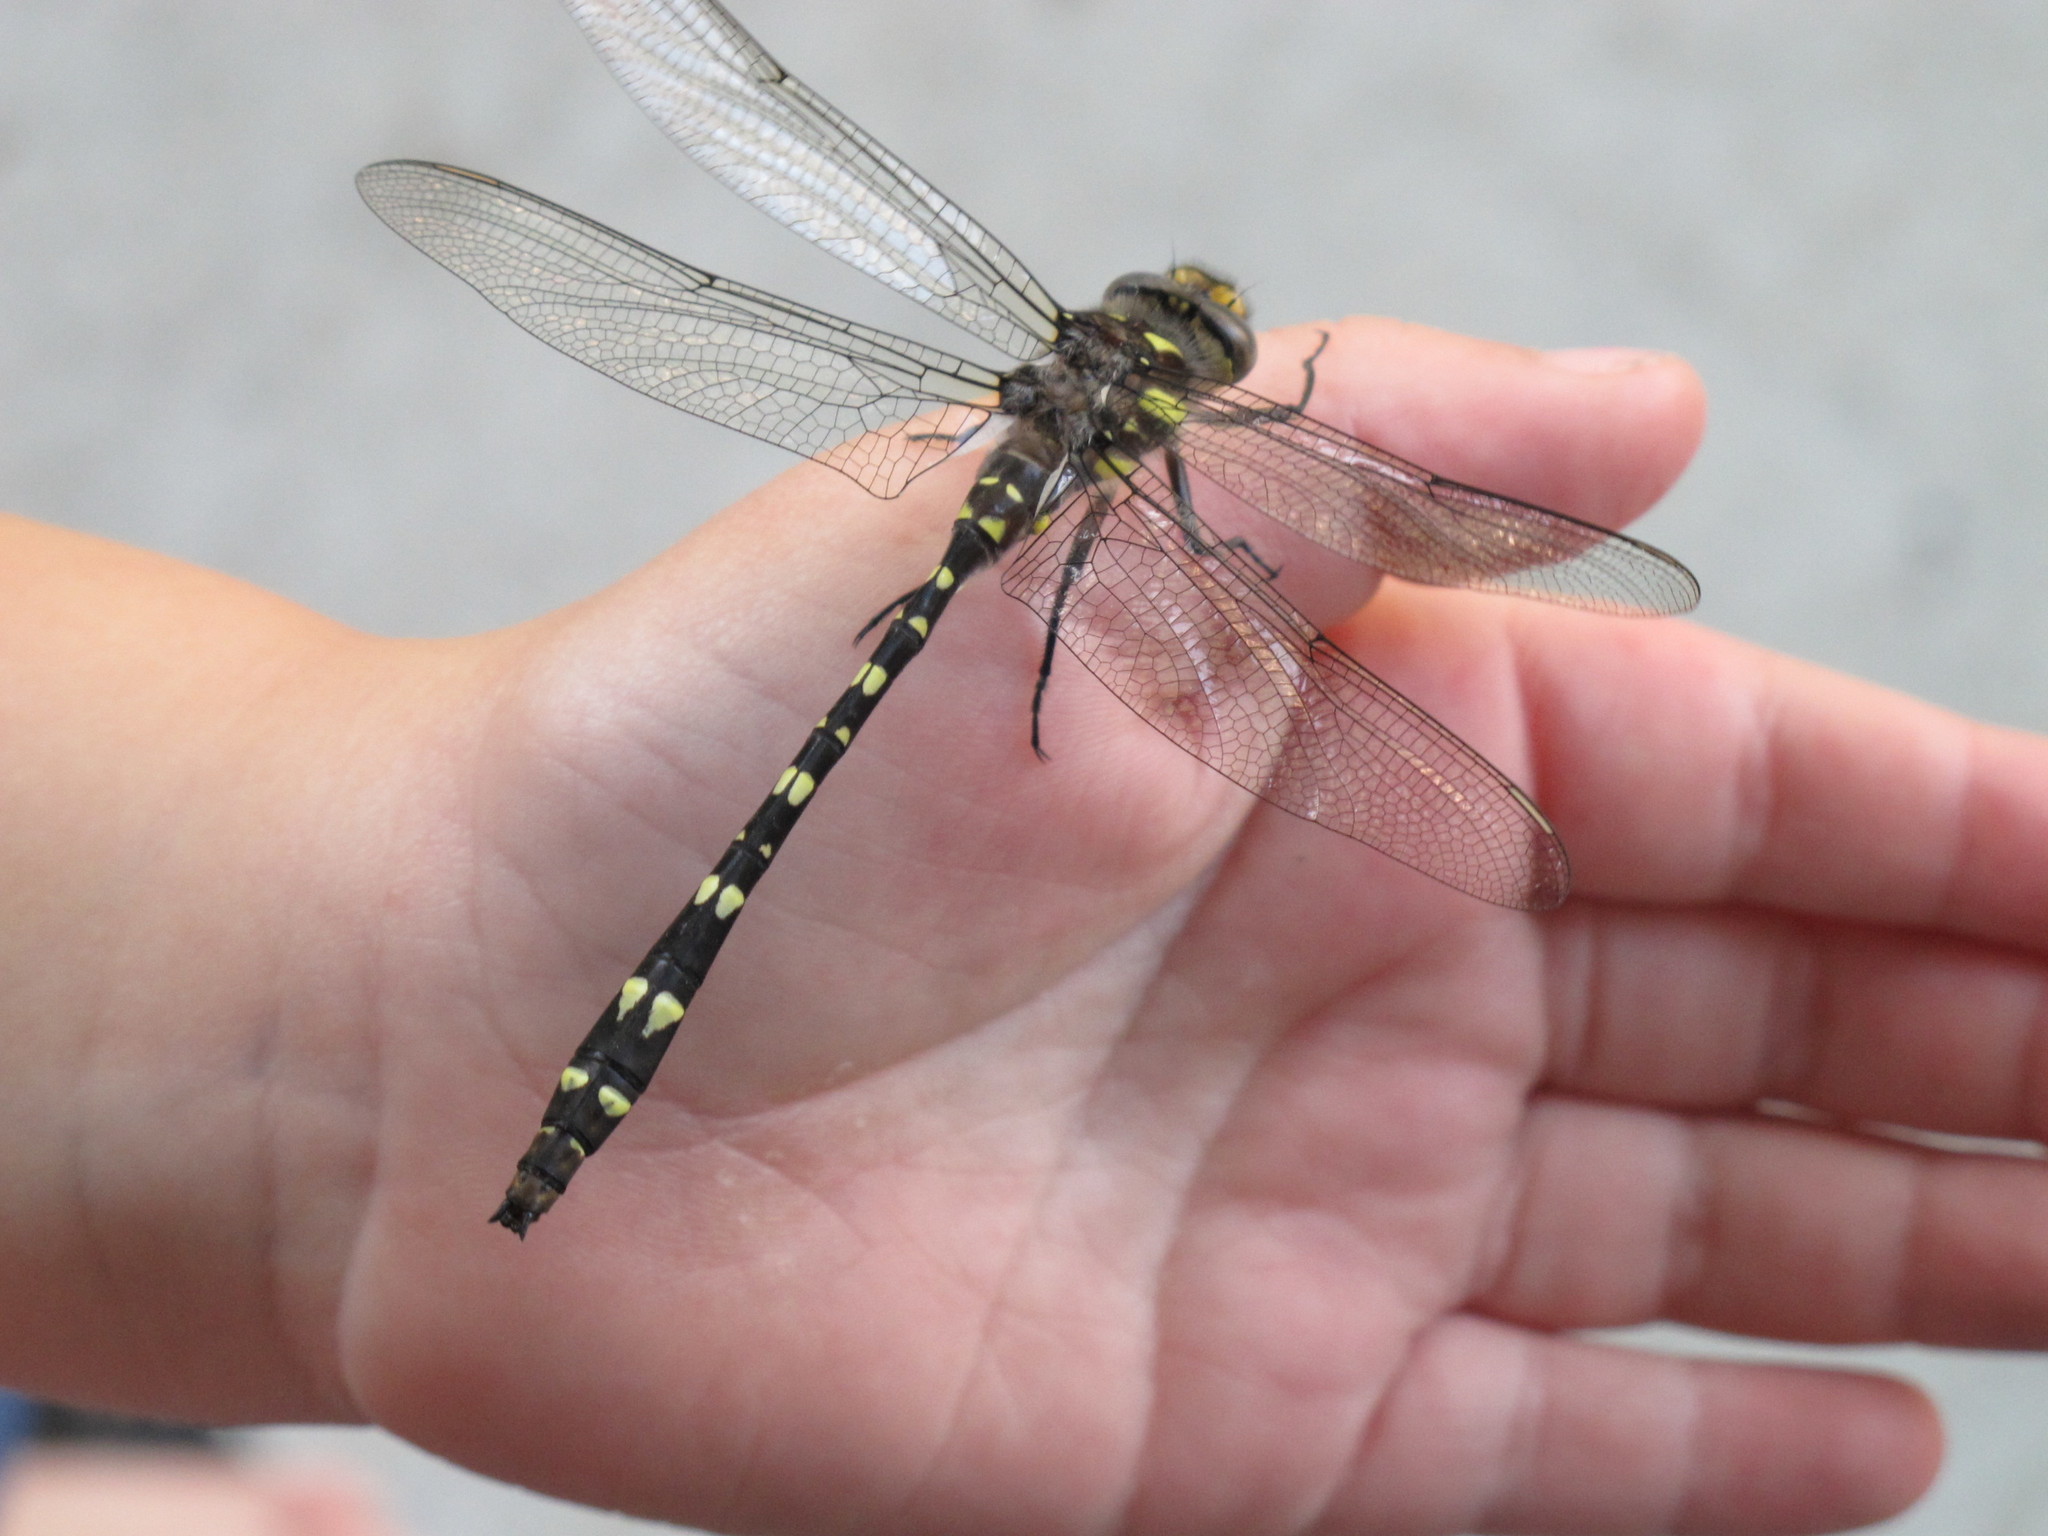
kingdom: Animalia
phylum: Arthropoda
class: Insecta
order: Odonata
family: Cordulegastridae
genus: Cordulegaster
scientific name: Cordulegaster maculata
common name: Twin-spotted spiketail
